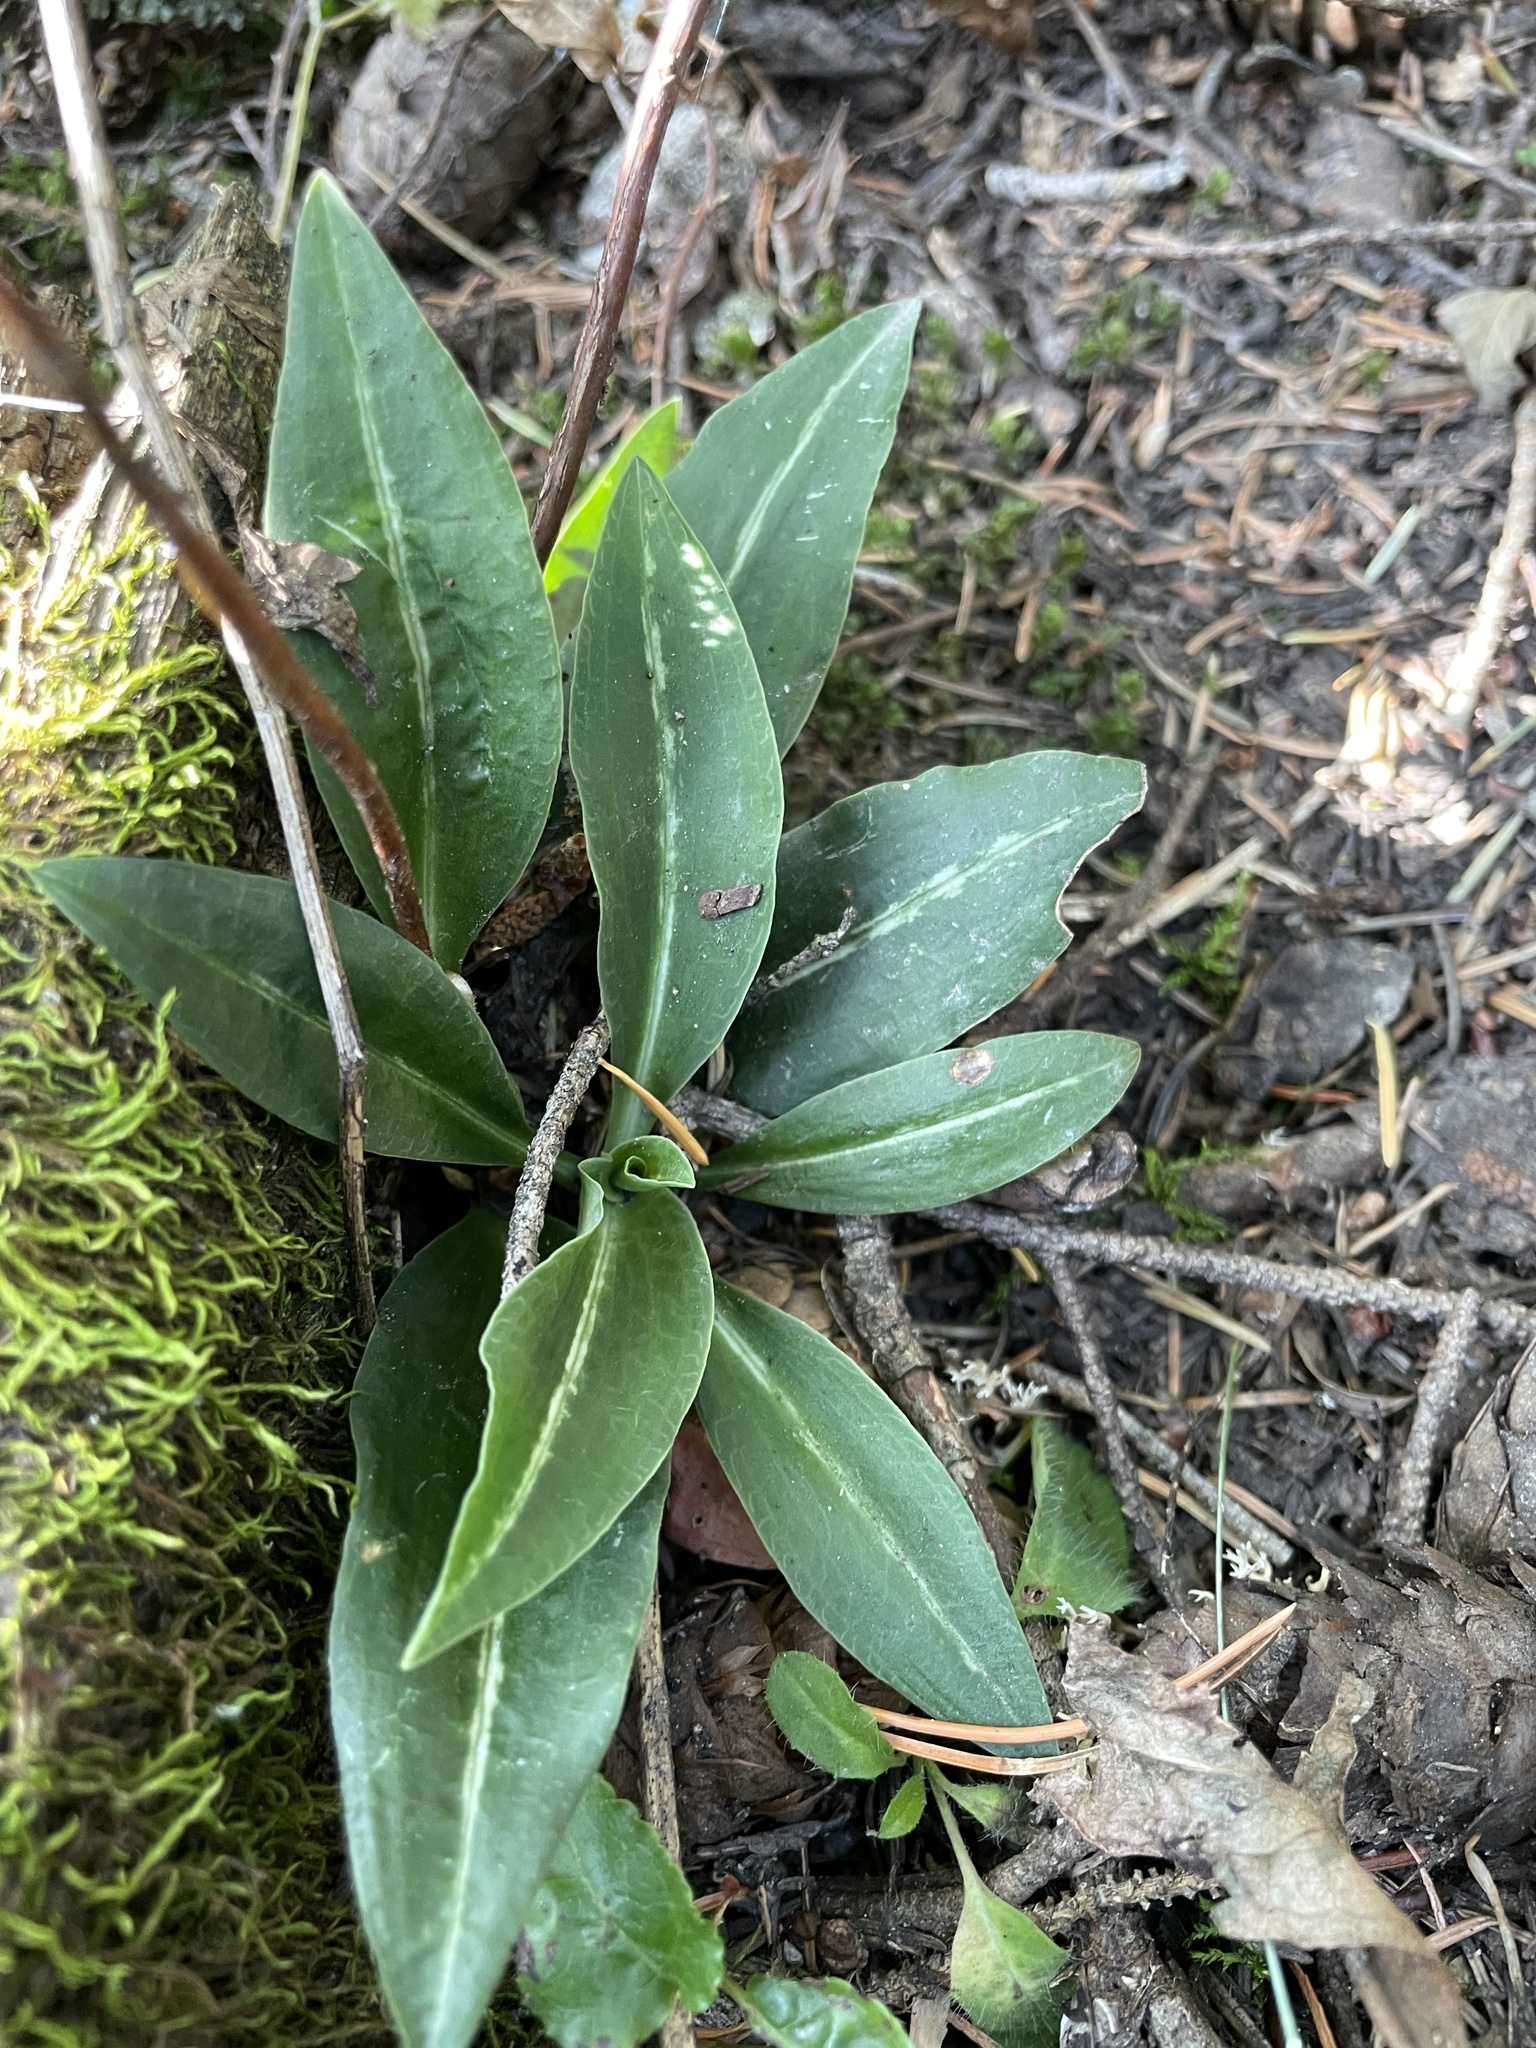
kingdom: Plantae
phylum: Tracheophyta
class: Liliopsida
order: Asparagales
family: Orchidaceae
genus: Goodyera
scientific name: Goodyera oblongifolia
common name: Giant rattlesnake-plantain
